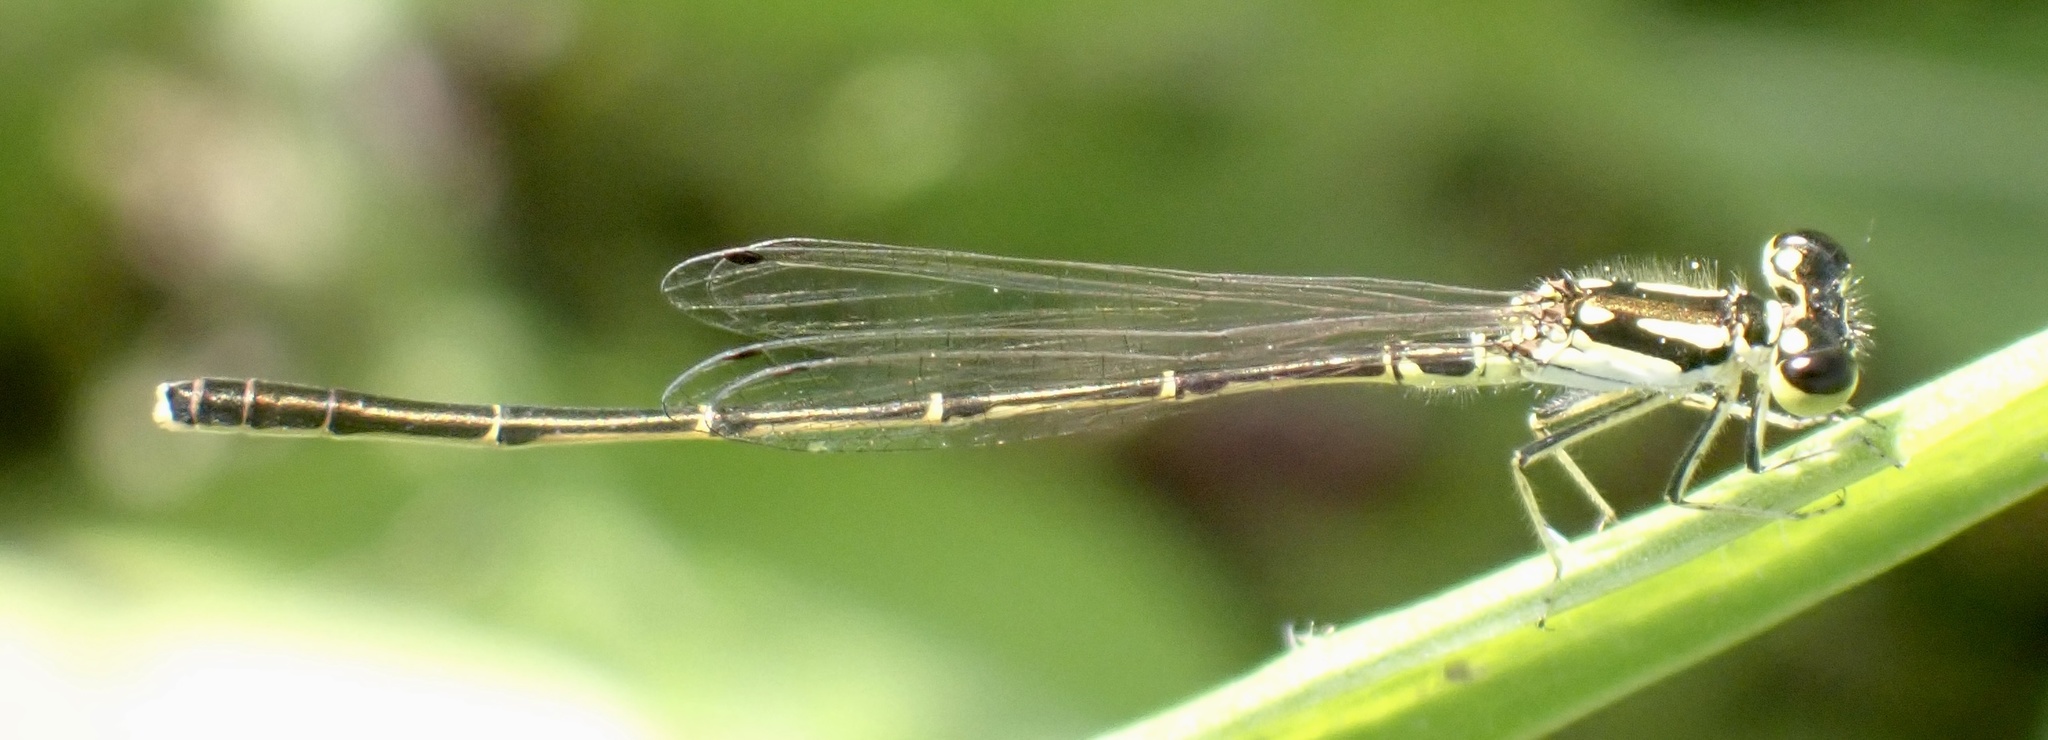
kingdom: Animalia
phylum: Arthropoda
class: Insecta
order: Odonata
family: Coenagrionidae
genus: Ischnura
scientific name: Ischnura posita
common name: Fragile forktail
